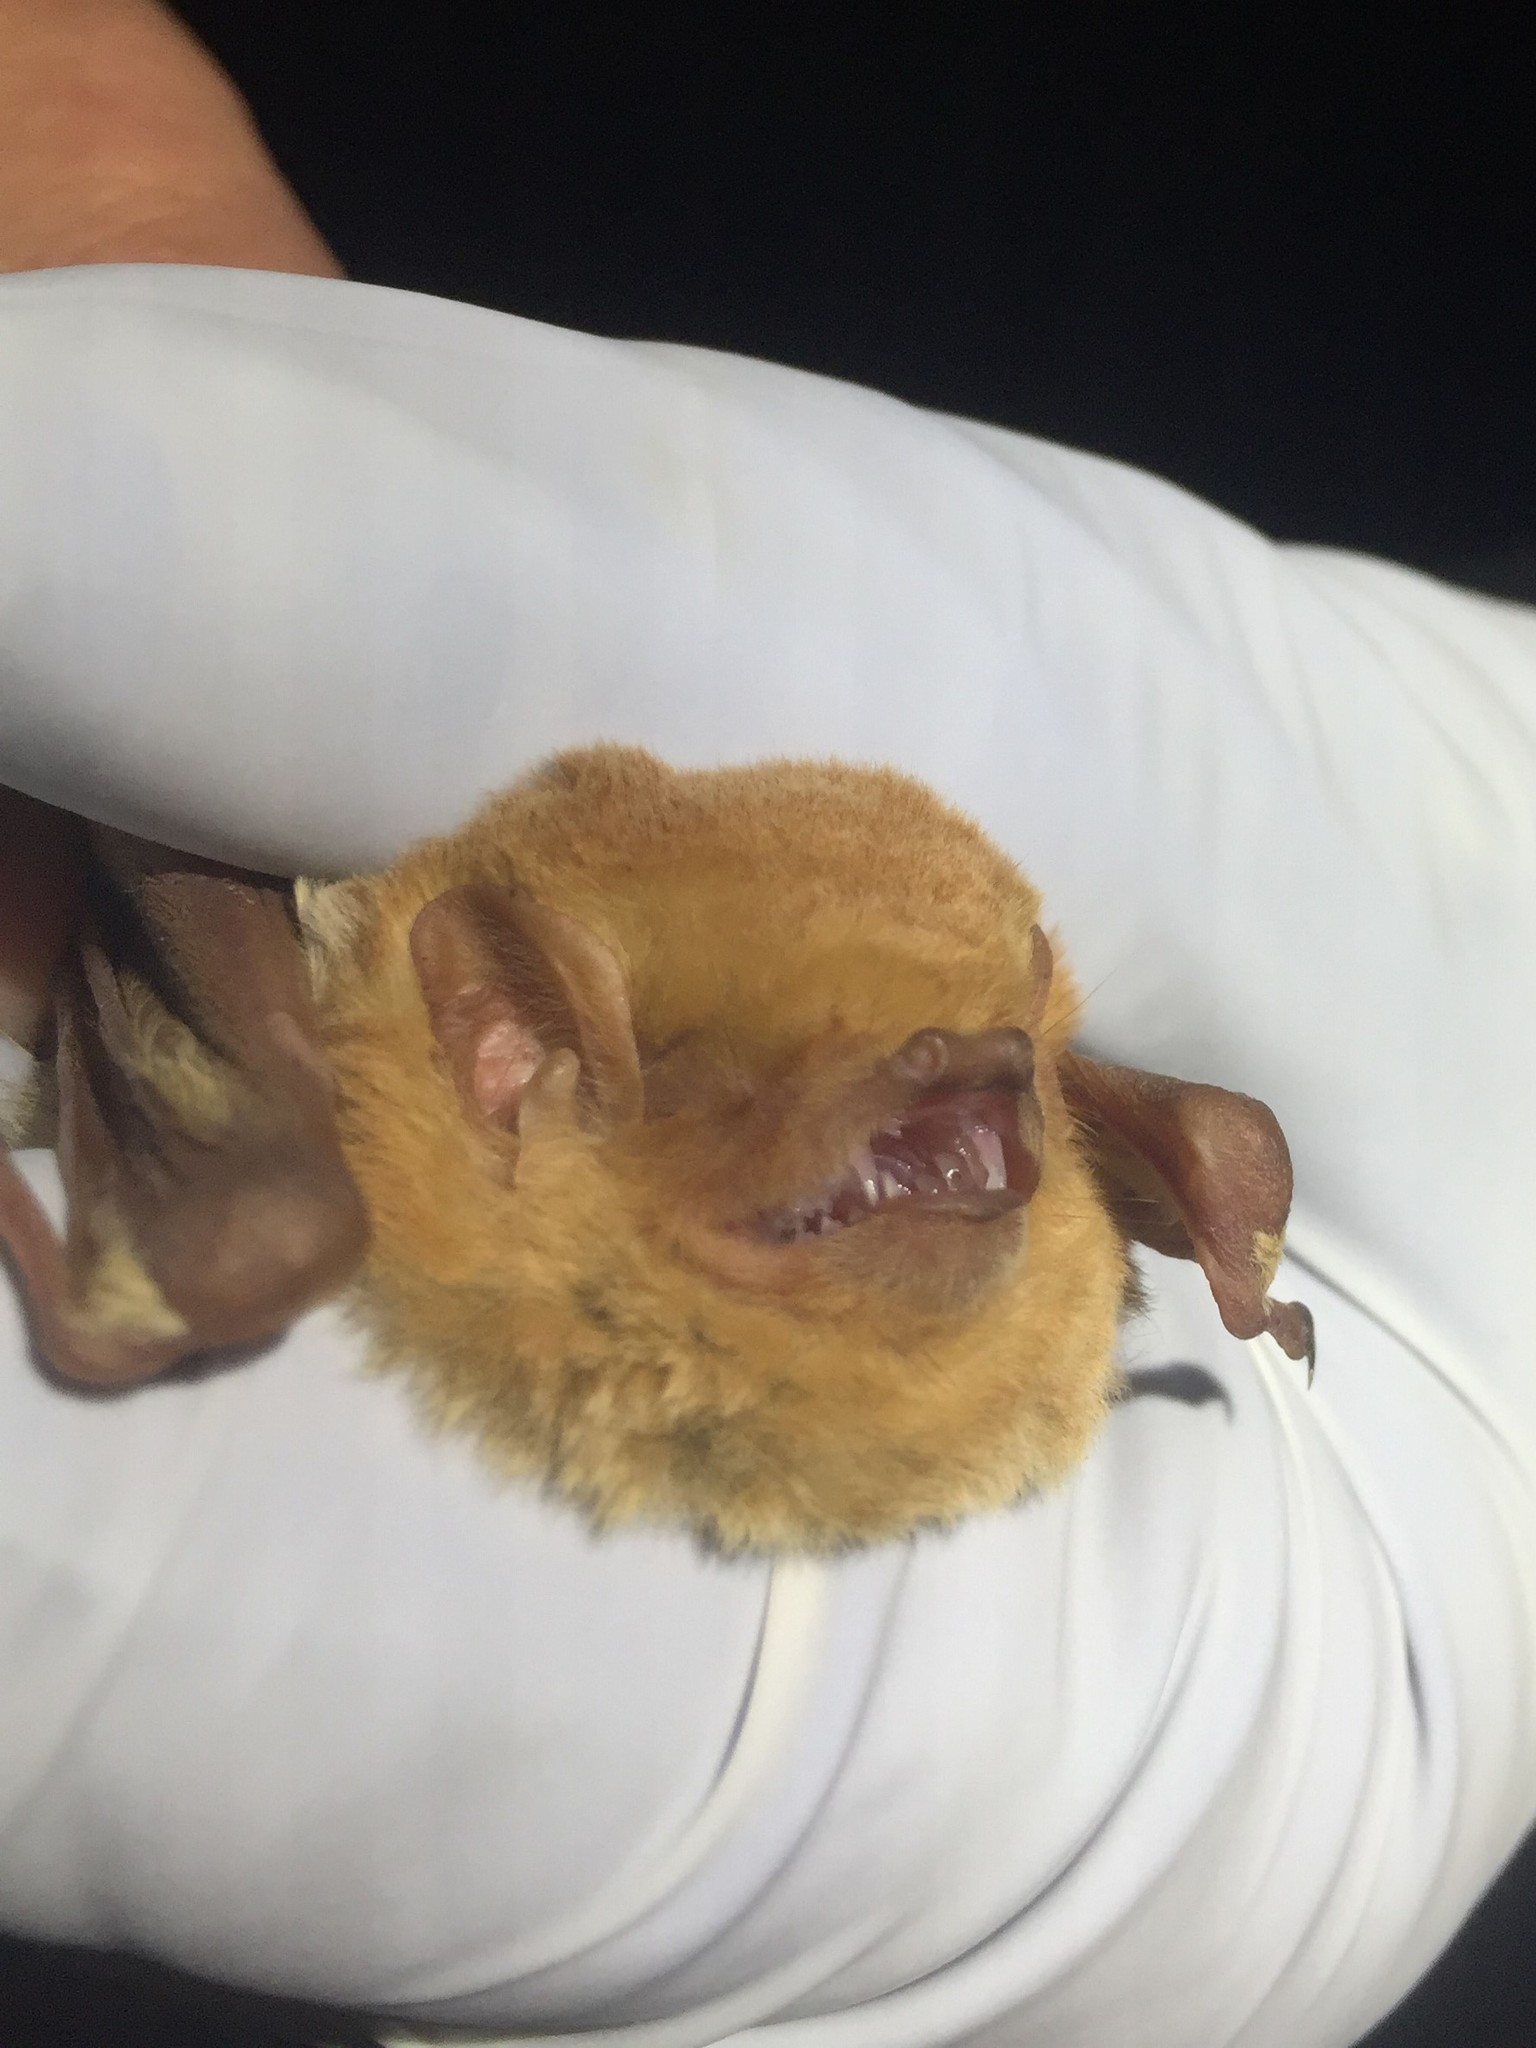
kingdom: Animalia
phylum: Chordata
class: Mammalia
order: Chiroptera
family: Vespertilionidae
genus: Lasiurus
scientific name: Lasiurus frantzii
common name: Desert red bat
